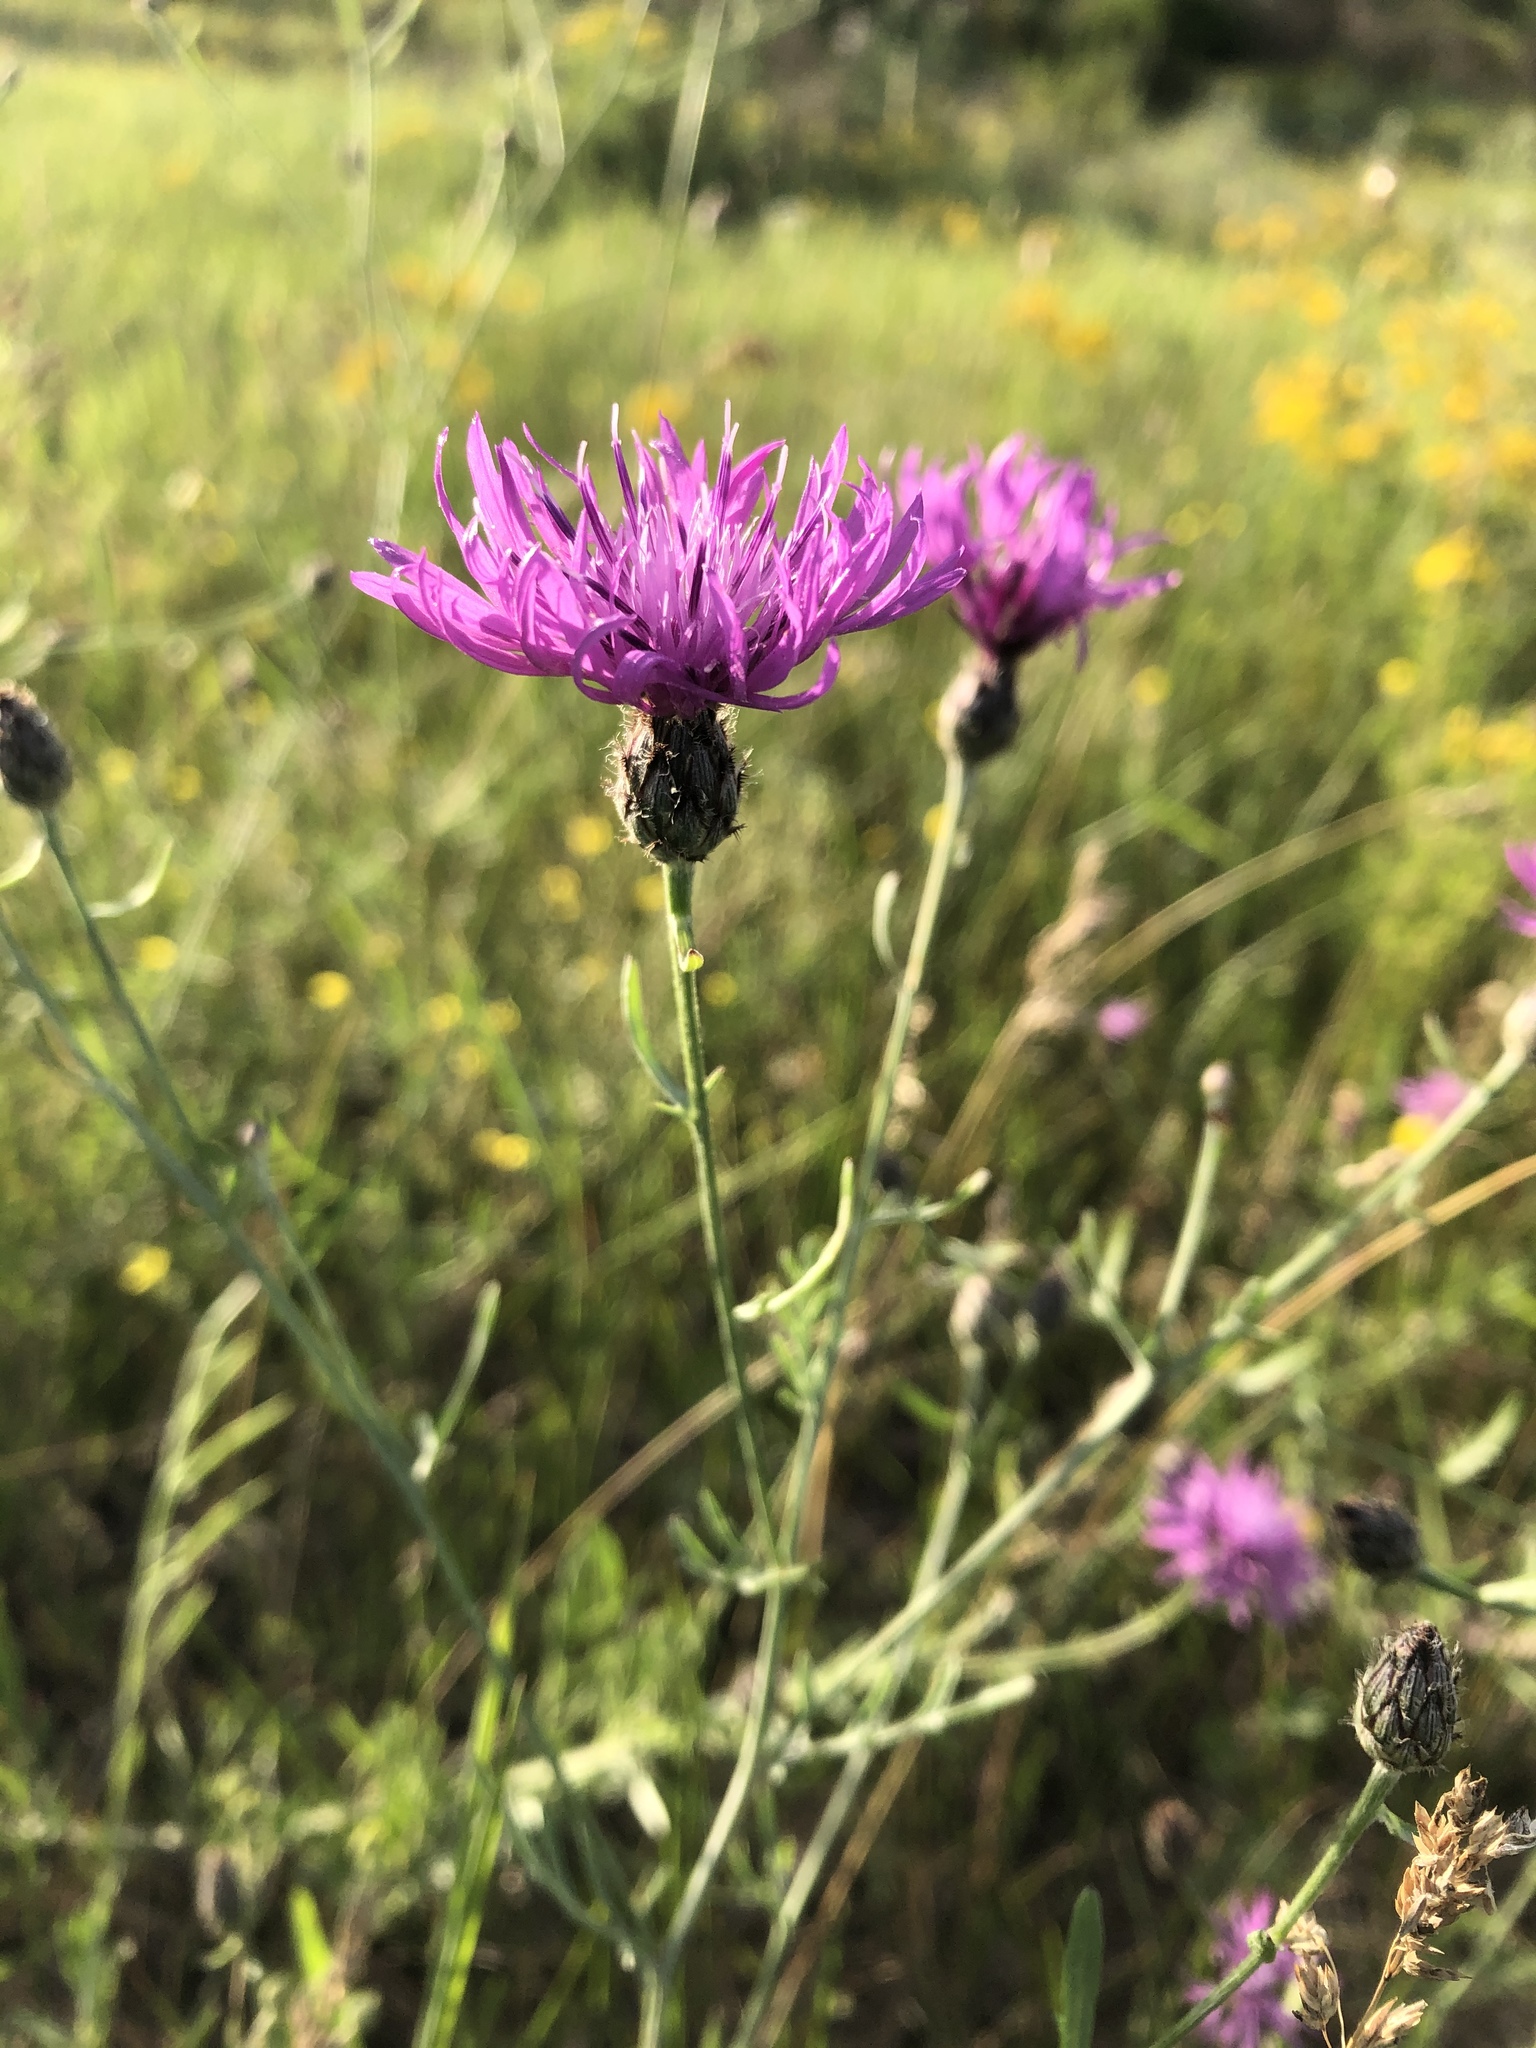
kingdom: Plantae
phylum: Tracheophyta
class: Magnoliopsida
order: Asterales
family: Asteraceae
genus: Centaurea
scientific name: Centaurea stoebe
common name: Spotted knapweed
